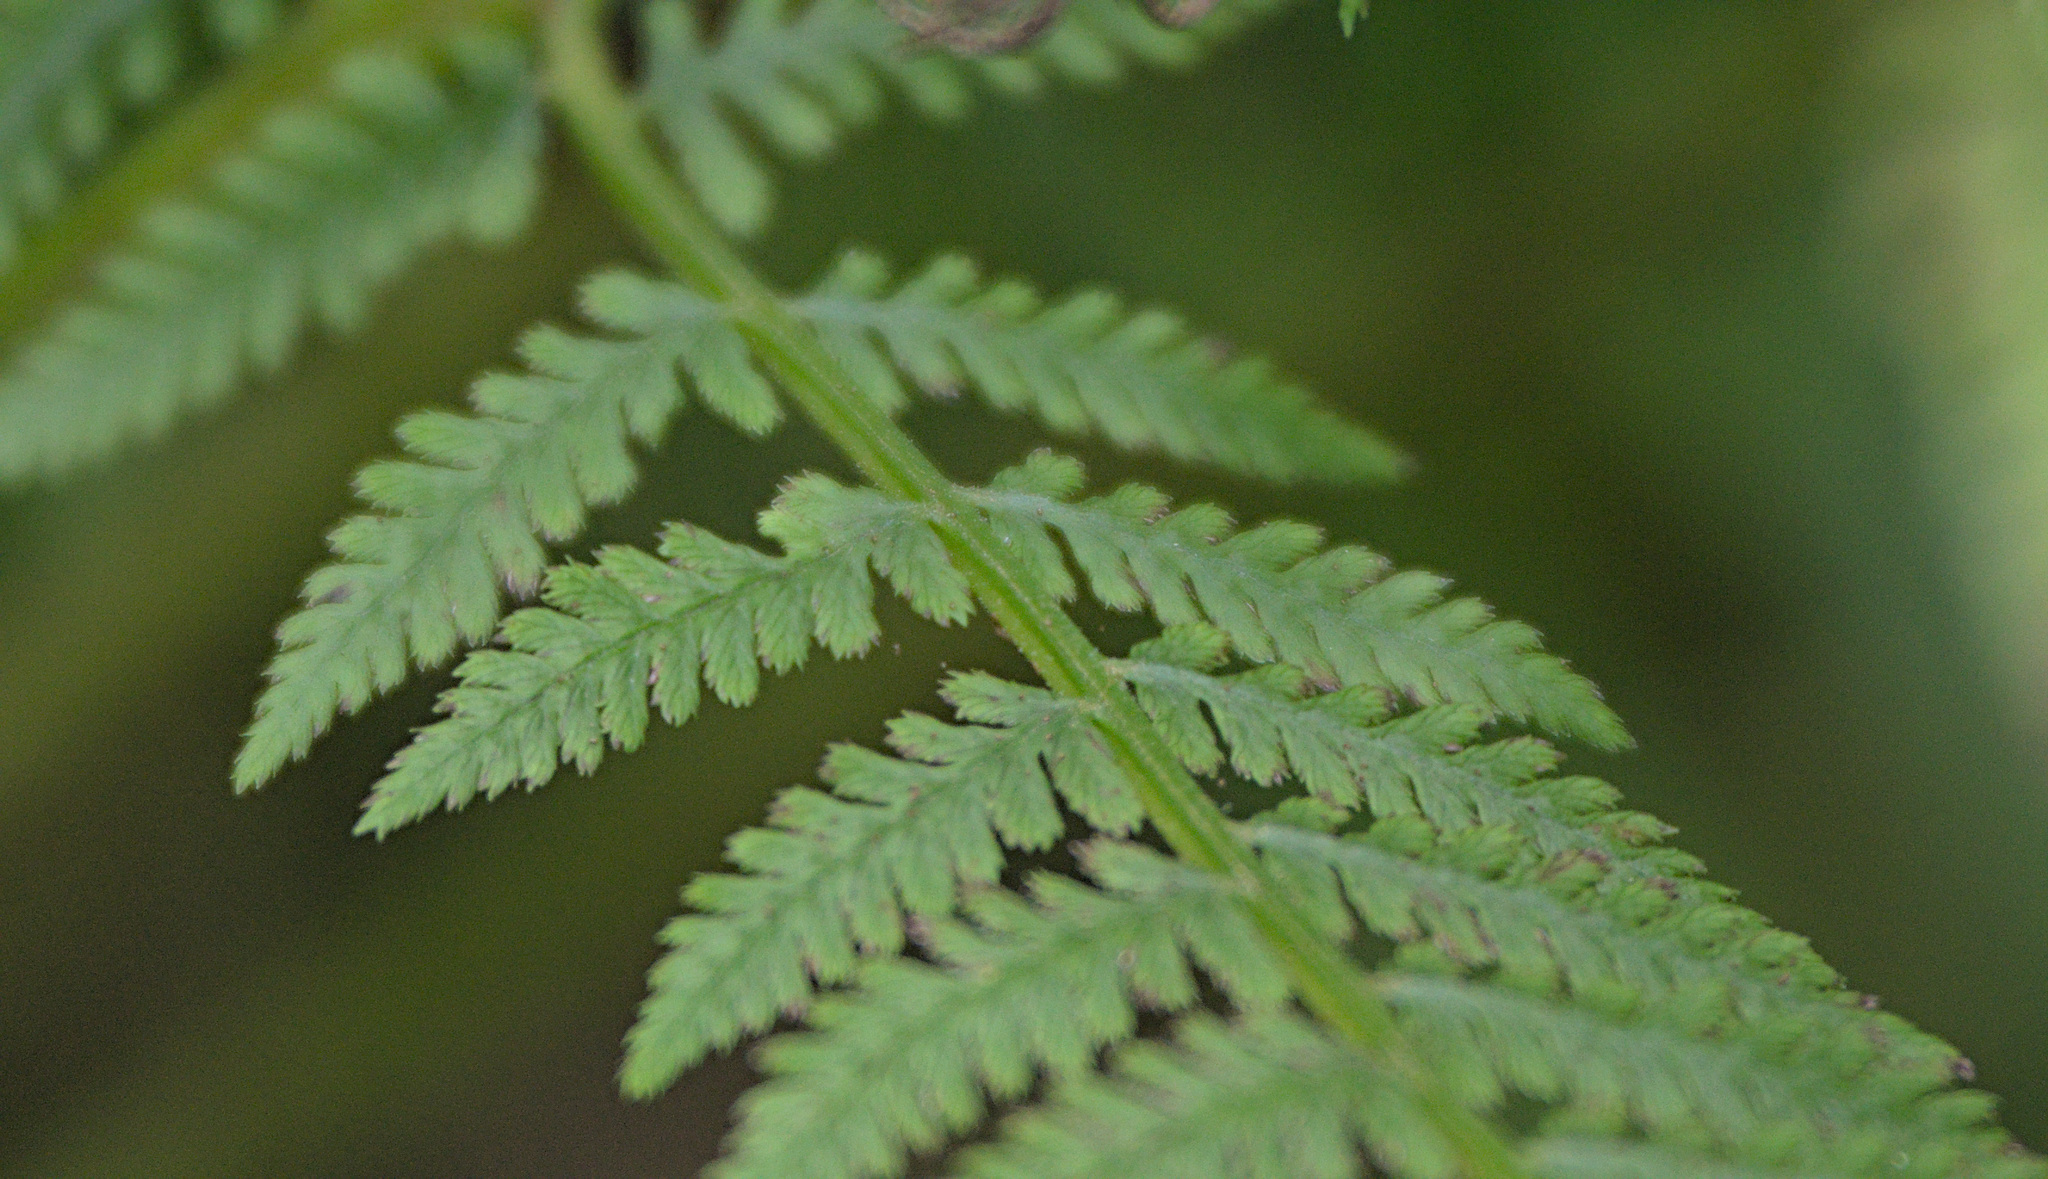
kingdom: Plantae
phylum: Tracheophyta
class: Polypodiopsida
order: Polypodiales
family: Athyriaceae
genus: Athyrium
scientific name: Athyrium filix-femina
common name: Lady fern
